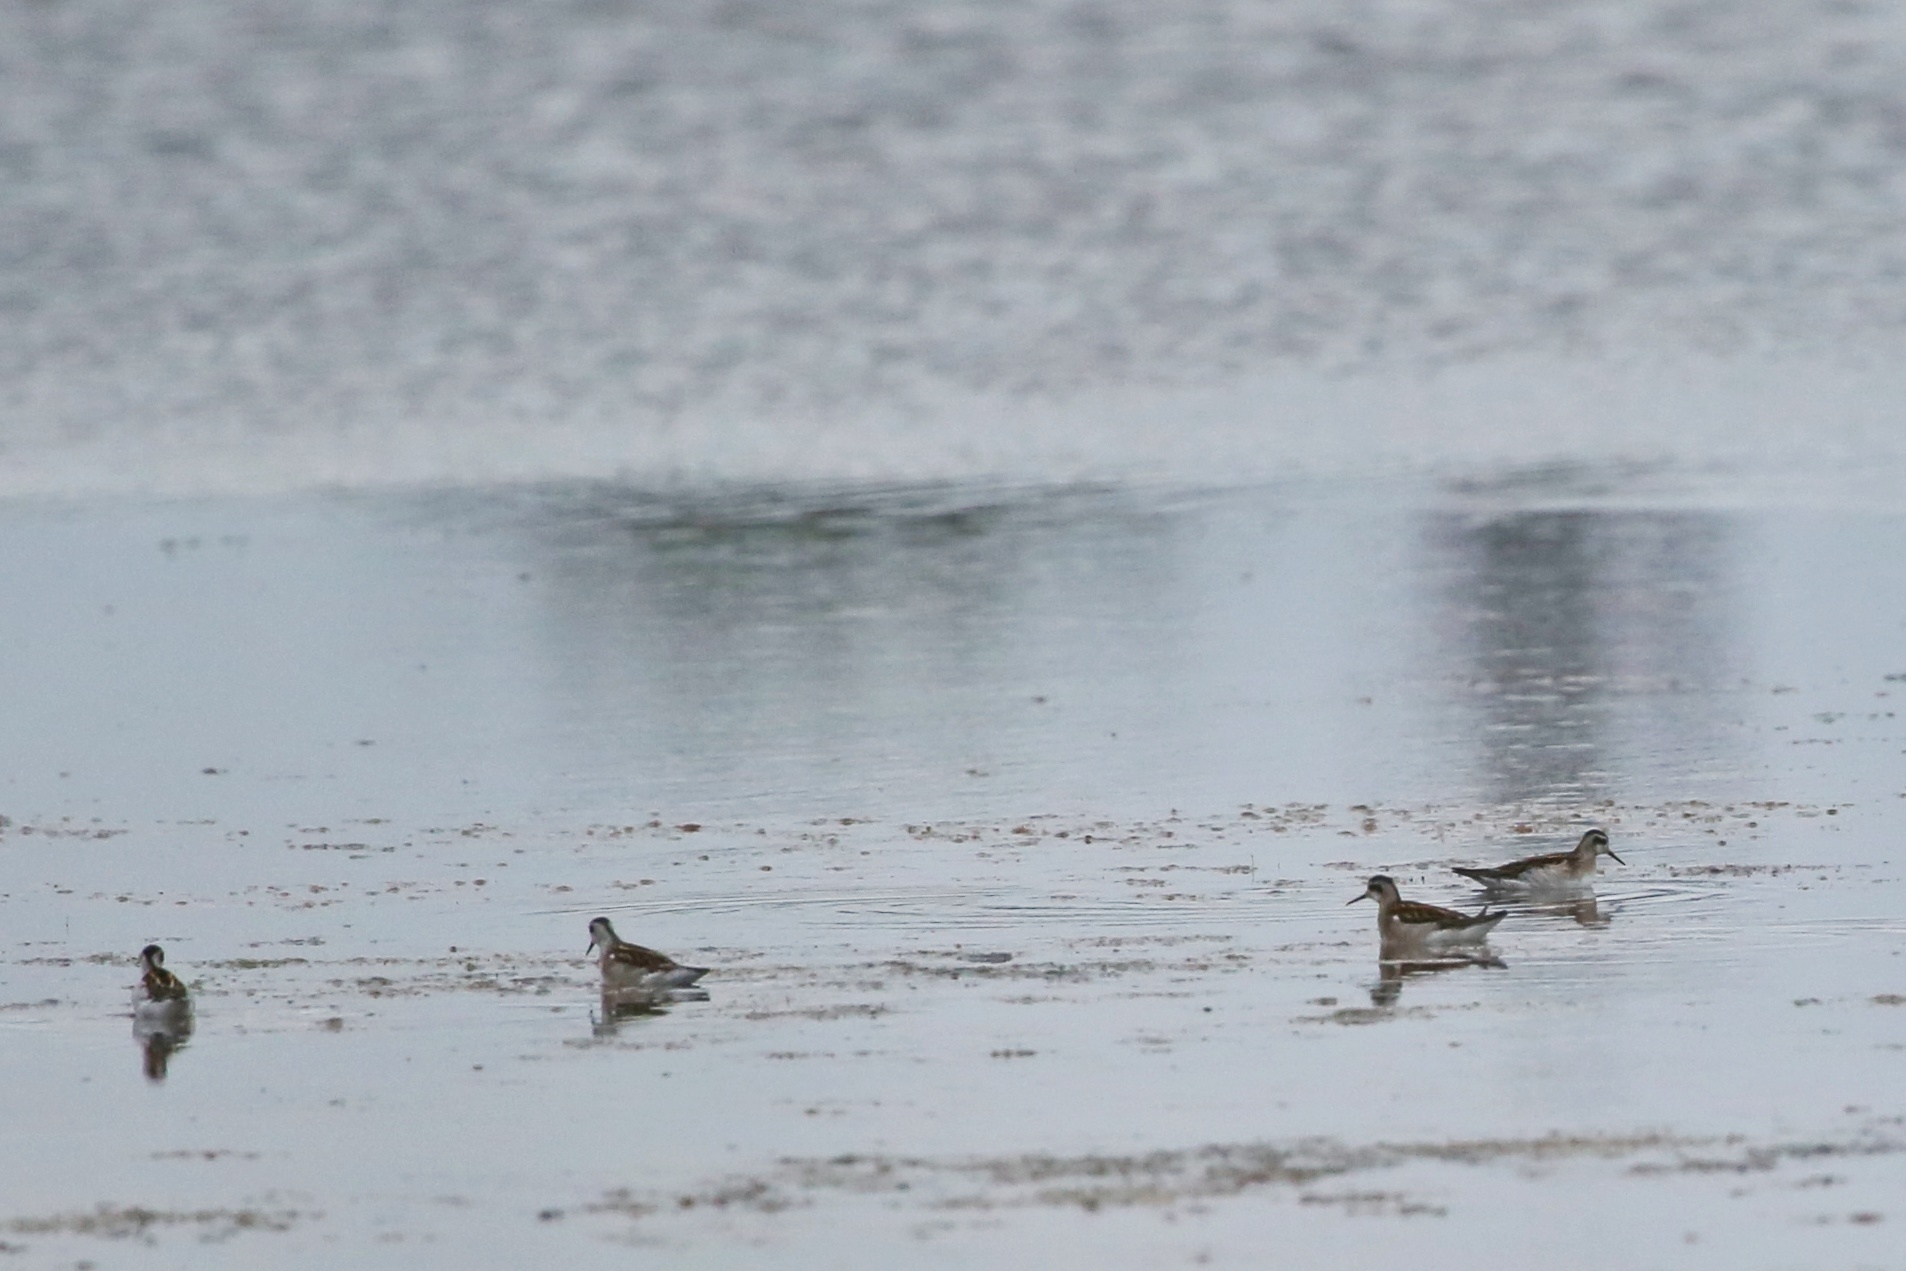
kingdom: Animalia
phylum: Chordata
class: Aves
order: Charadriiformes
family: Scolopacidae
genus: Phalaropus
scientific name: Phalaropus lobatus
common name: Red-necked phalarope
